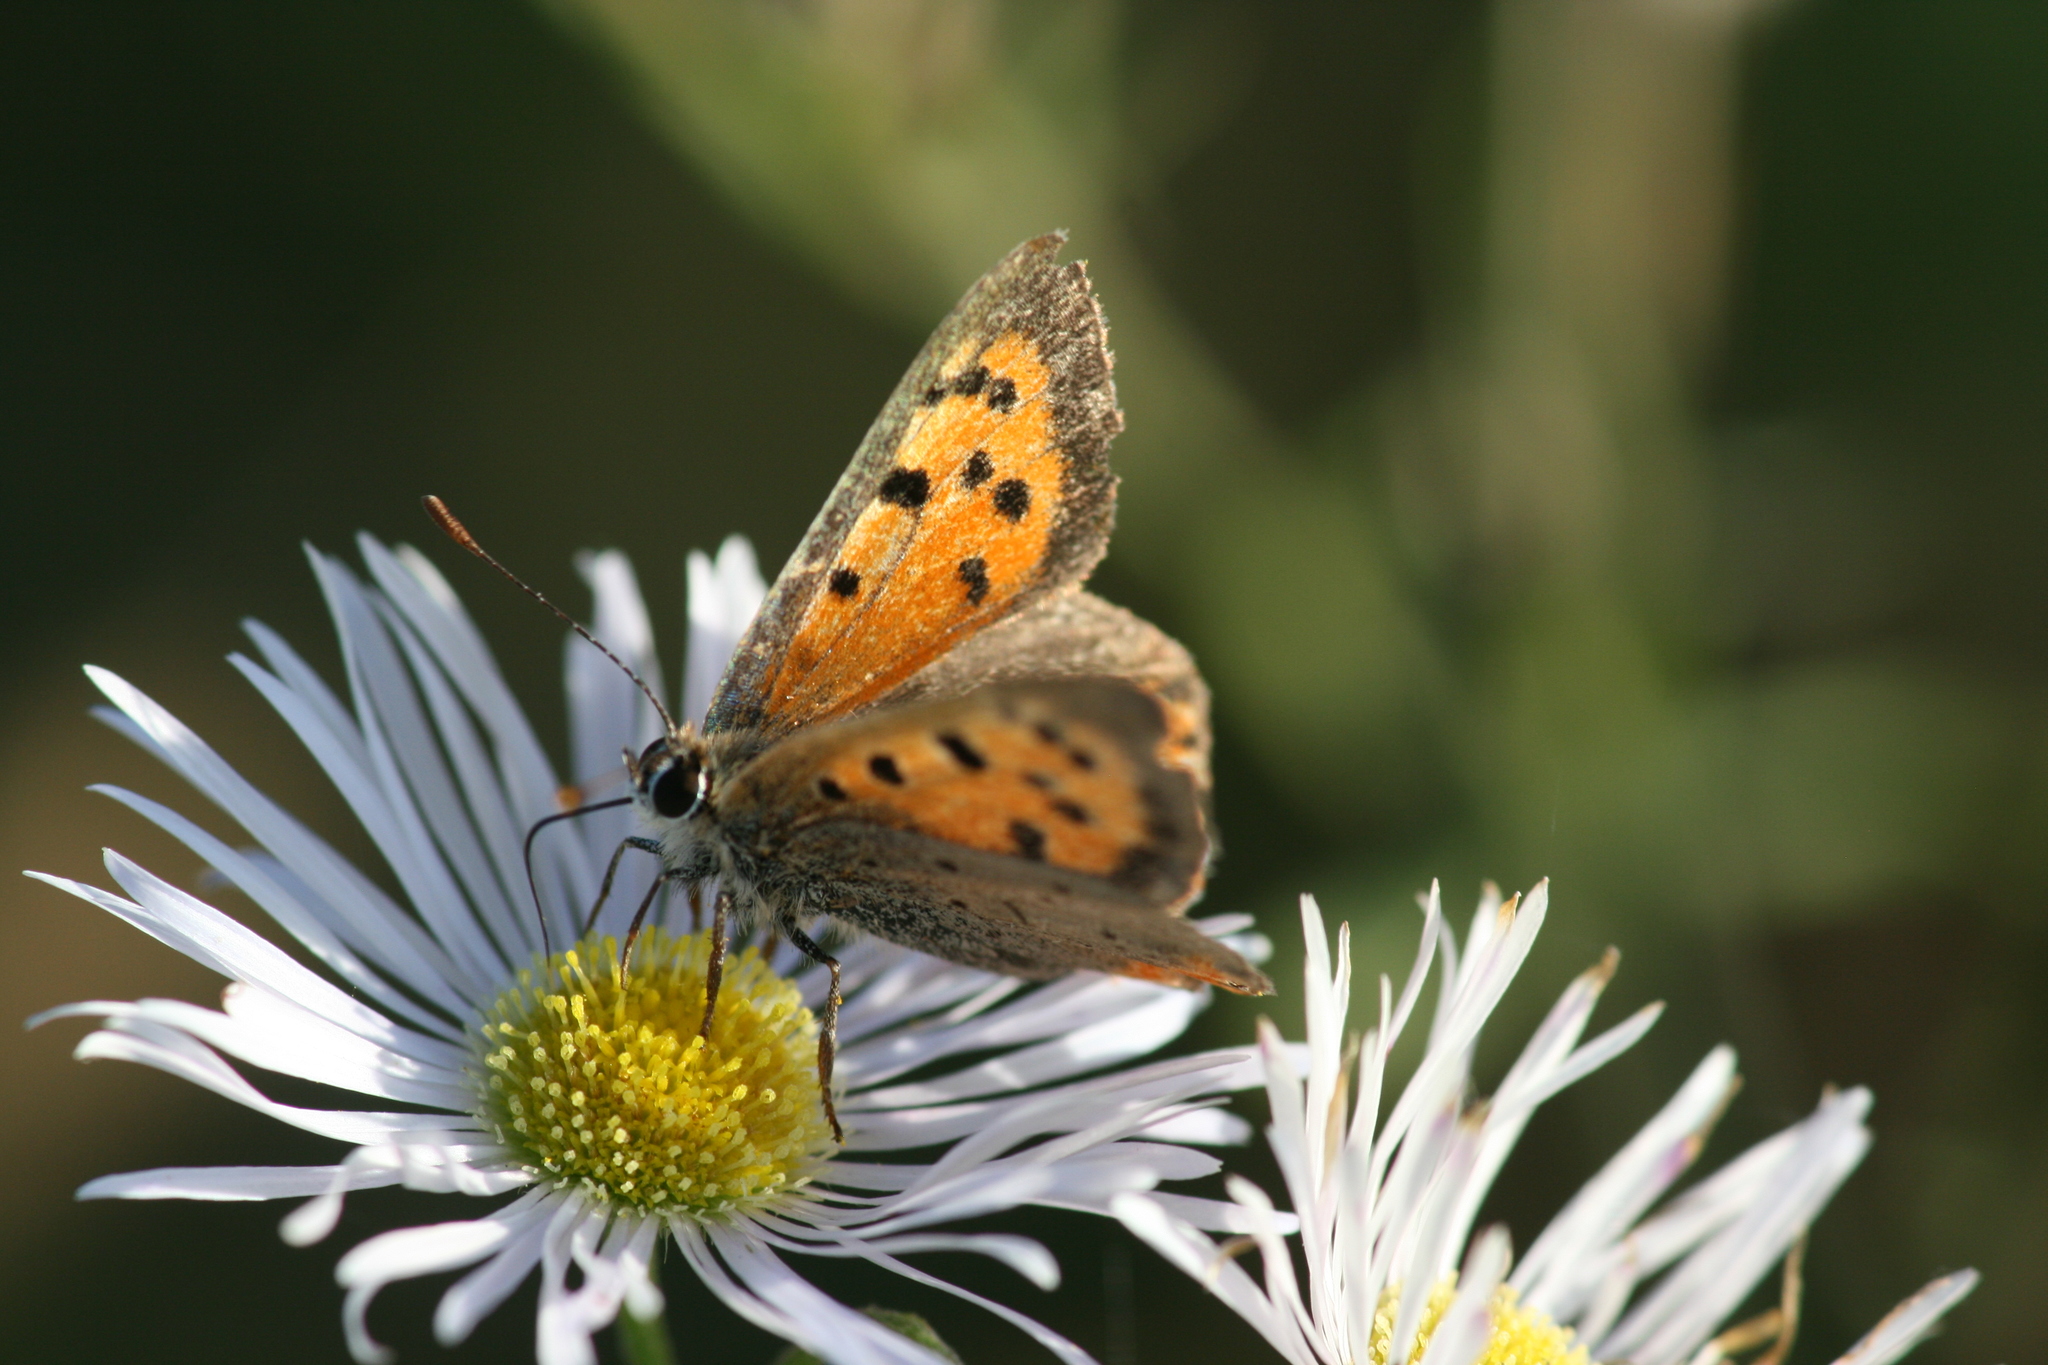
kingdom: Animalia
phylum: Arthropoda
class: Insecta
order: Lepidoptera
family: Lycaenidae
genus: Lycaena
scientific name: Lycaena phlaeas
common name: Small copper
